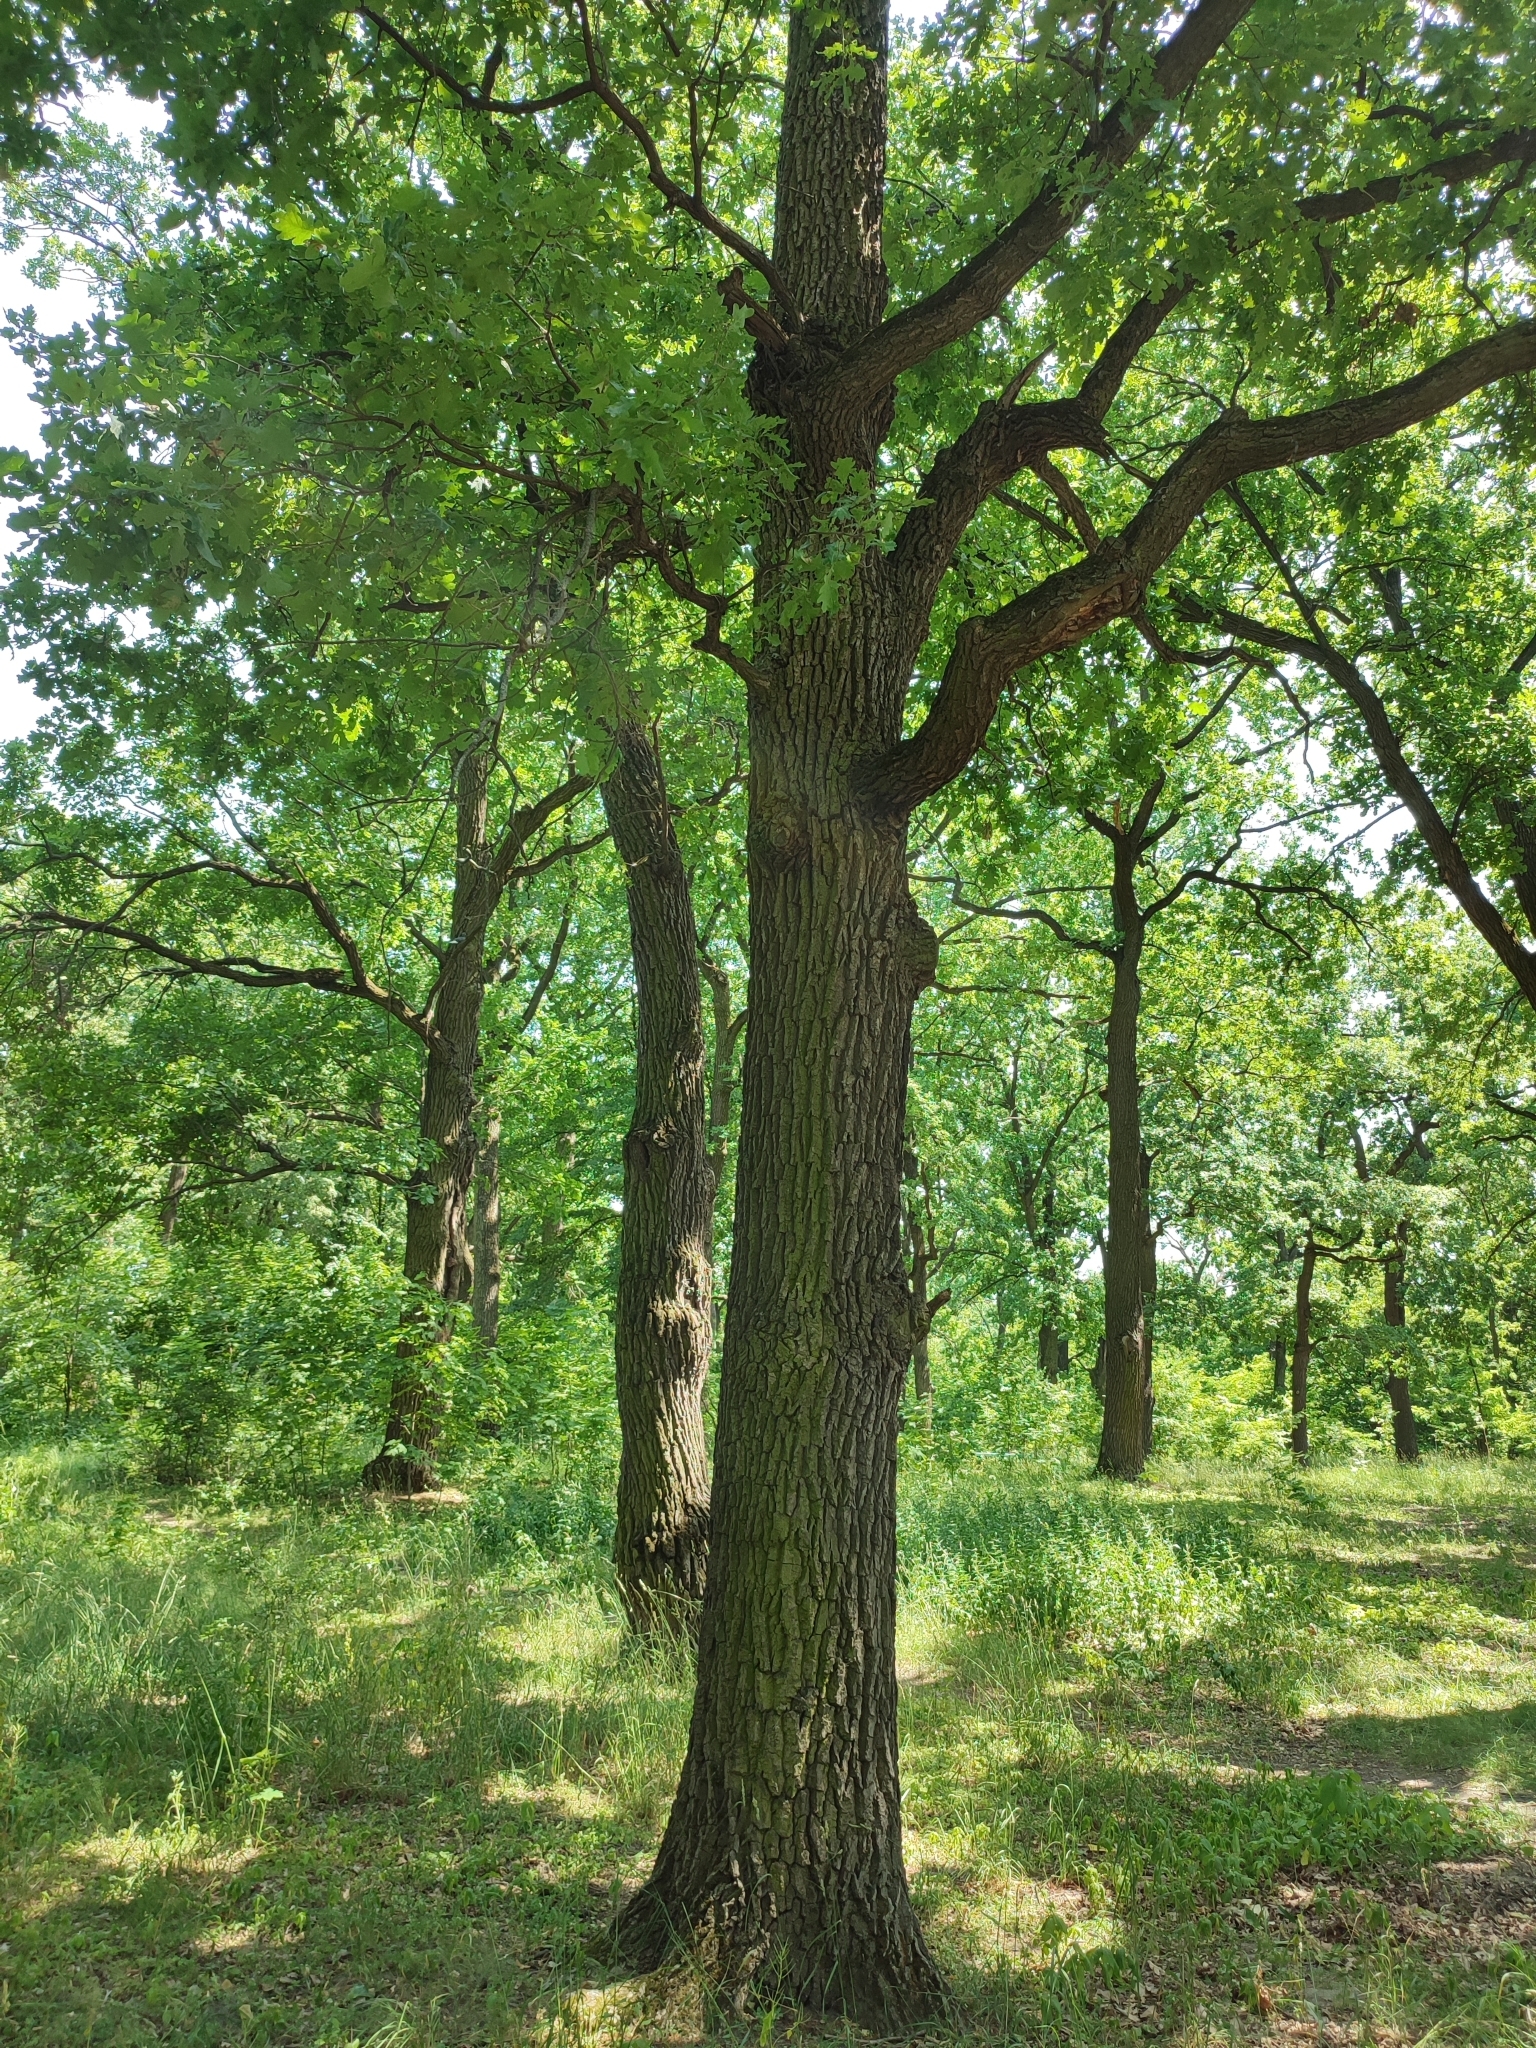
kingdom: Plantae
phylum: Tracheophyta
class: Magnoliopsida
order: Fagales
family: Fagaceae
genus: Quercus
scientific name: Quercus robur
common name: Pedunculate oak
